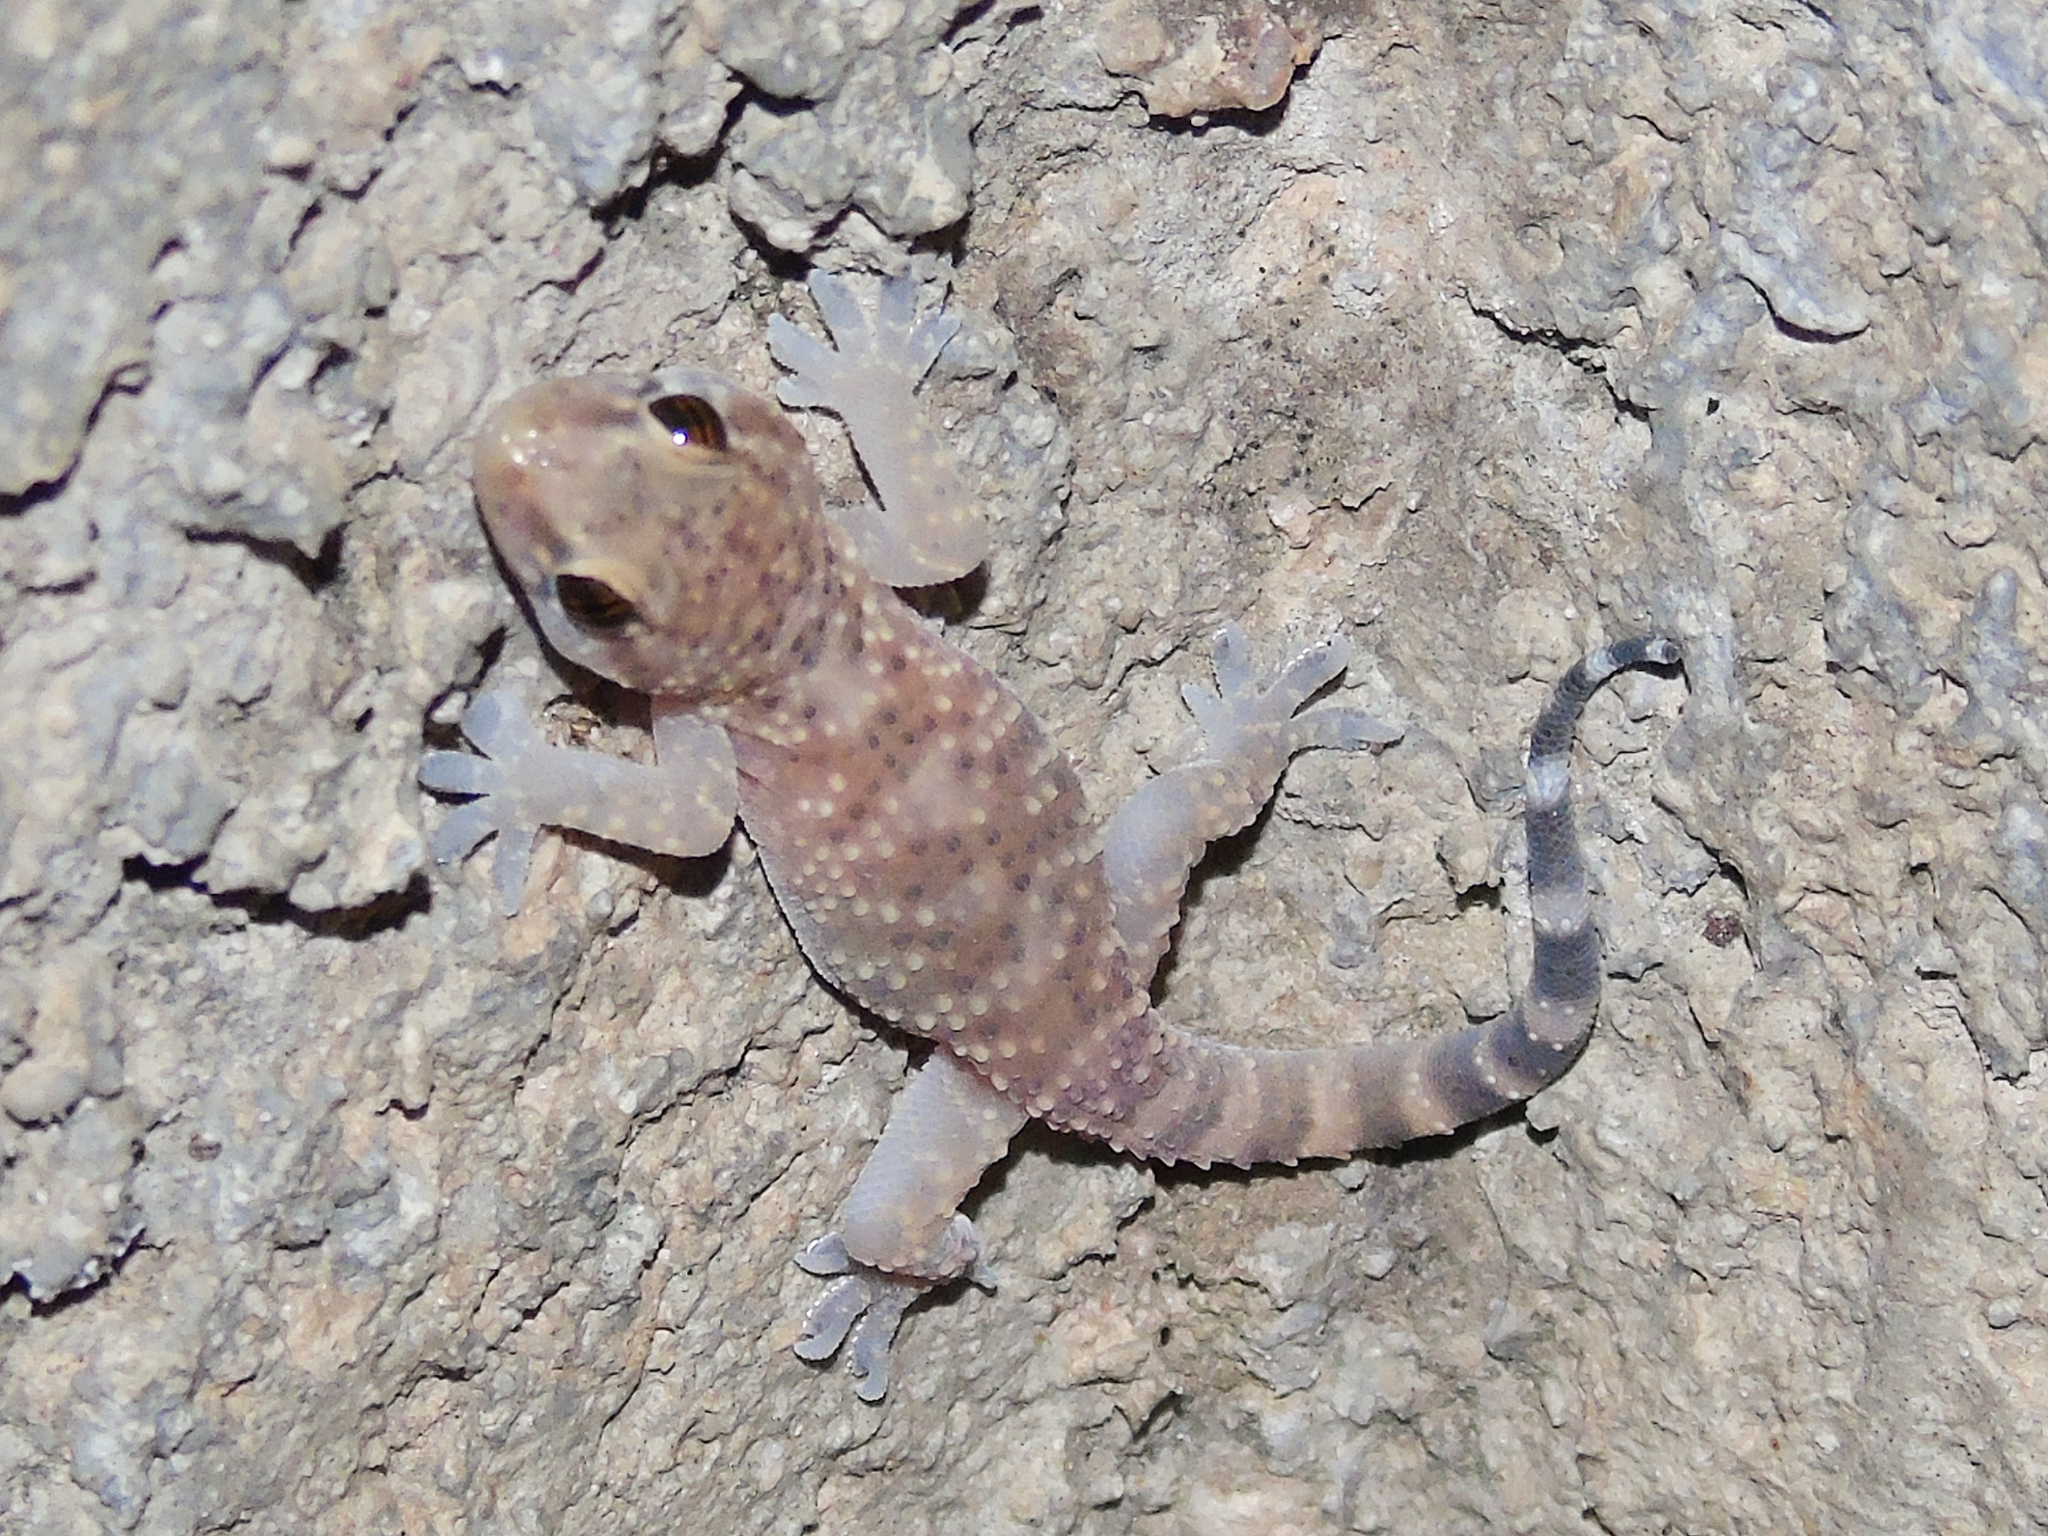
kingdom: Animalia
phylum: Chordata
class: Squamata
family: Gekkonidae
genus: Hemidactylus
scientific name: Hemidactylus turcicus
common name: Turkish gecko
